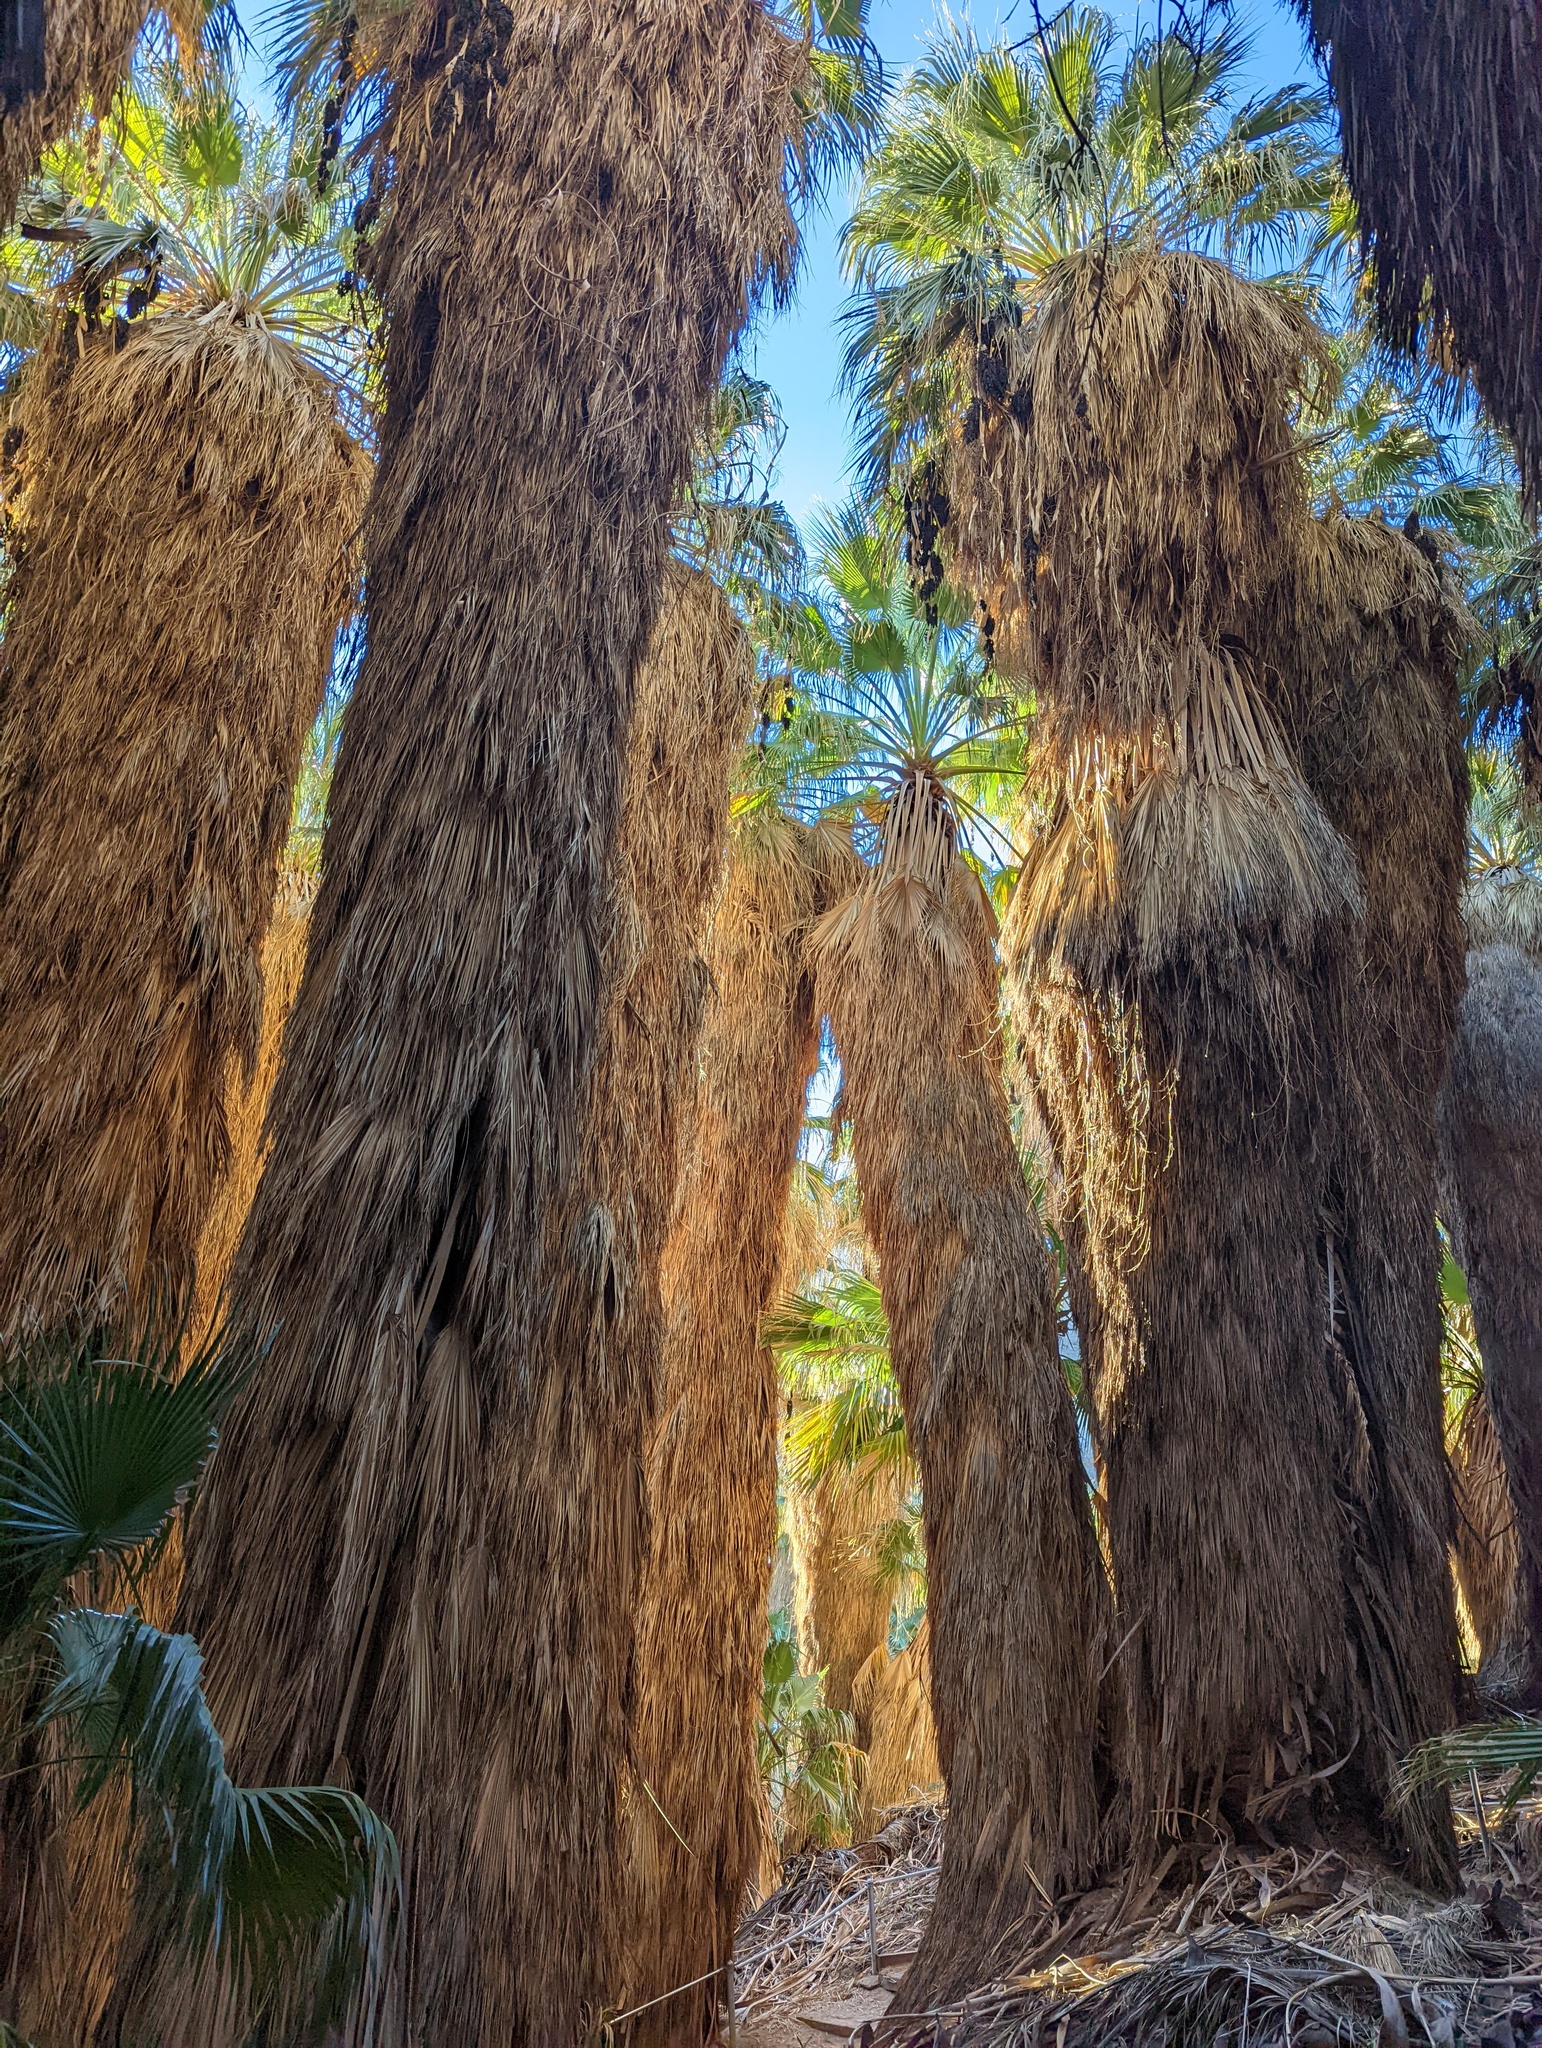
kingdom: Plantae
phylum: Tracheophyta
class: Liliopsida
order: Arecales
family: Arecaceae
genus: Washingtonia
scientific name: Washingtonia filifera
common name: California fan palm
